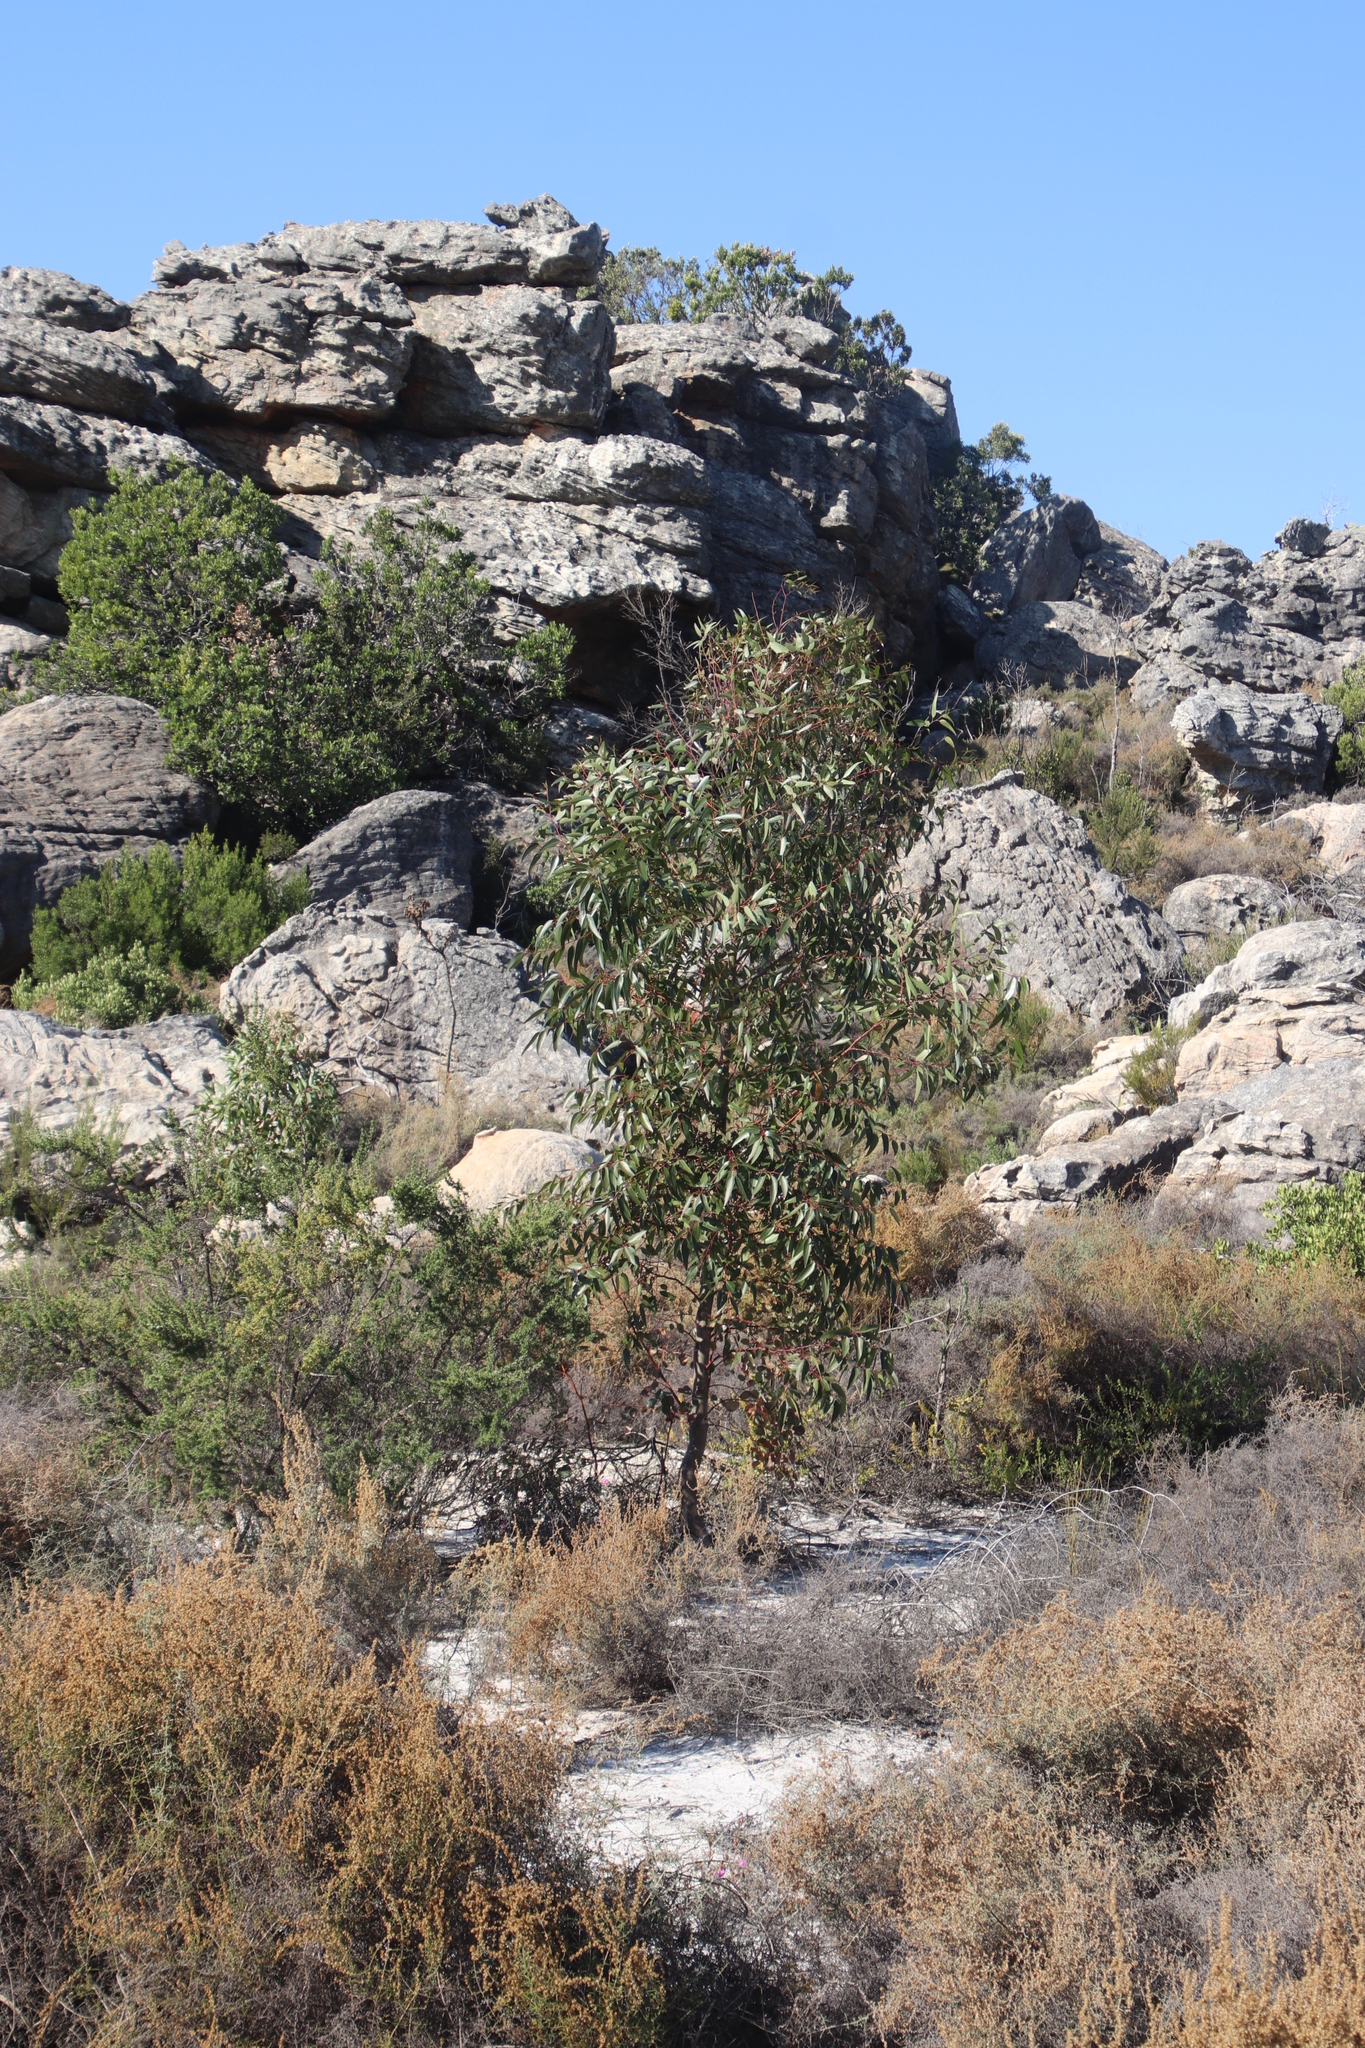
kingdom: Plantae
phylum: Tracheophyta
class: Magnoliopsida
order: Myrtales
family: Myrtaceae
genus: Eucalyptus
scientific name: Eucalyptus cladocalyx
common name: Sugargum
